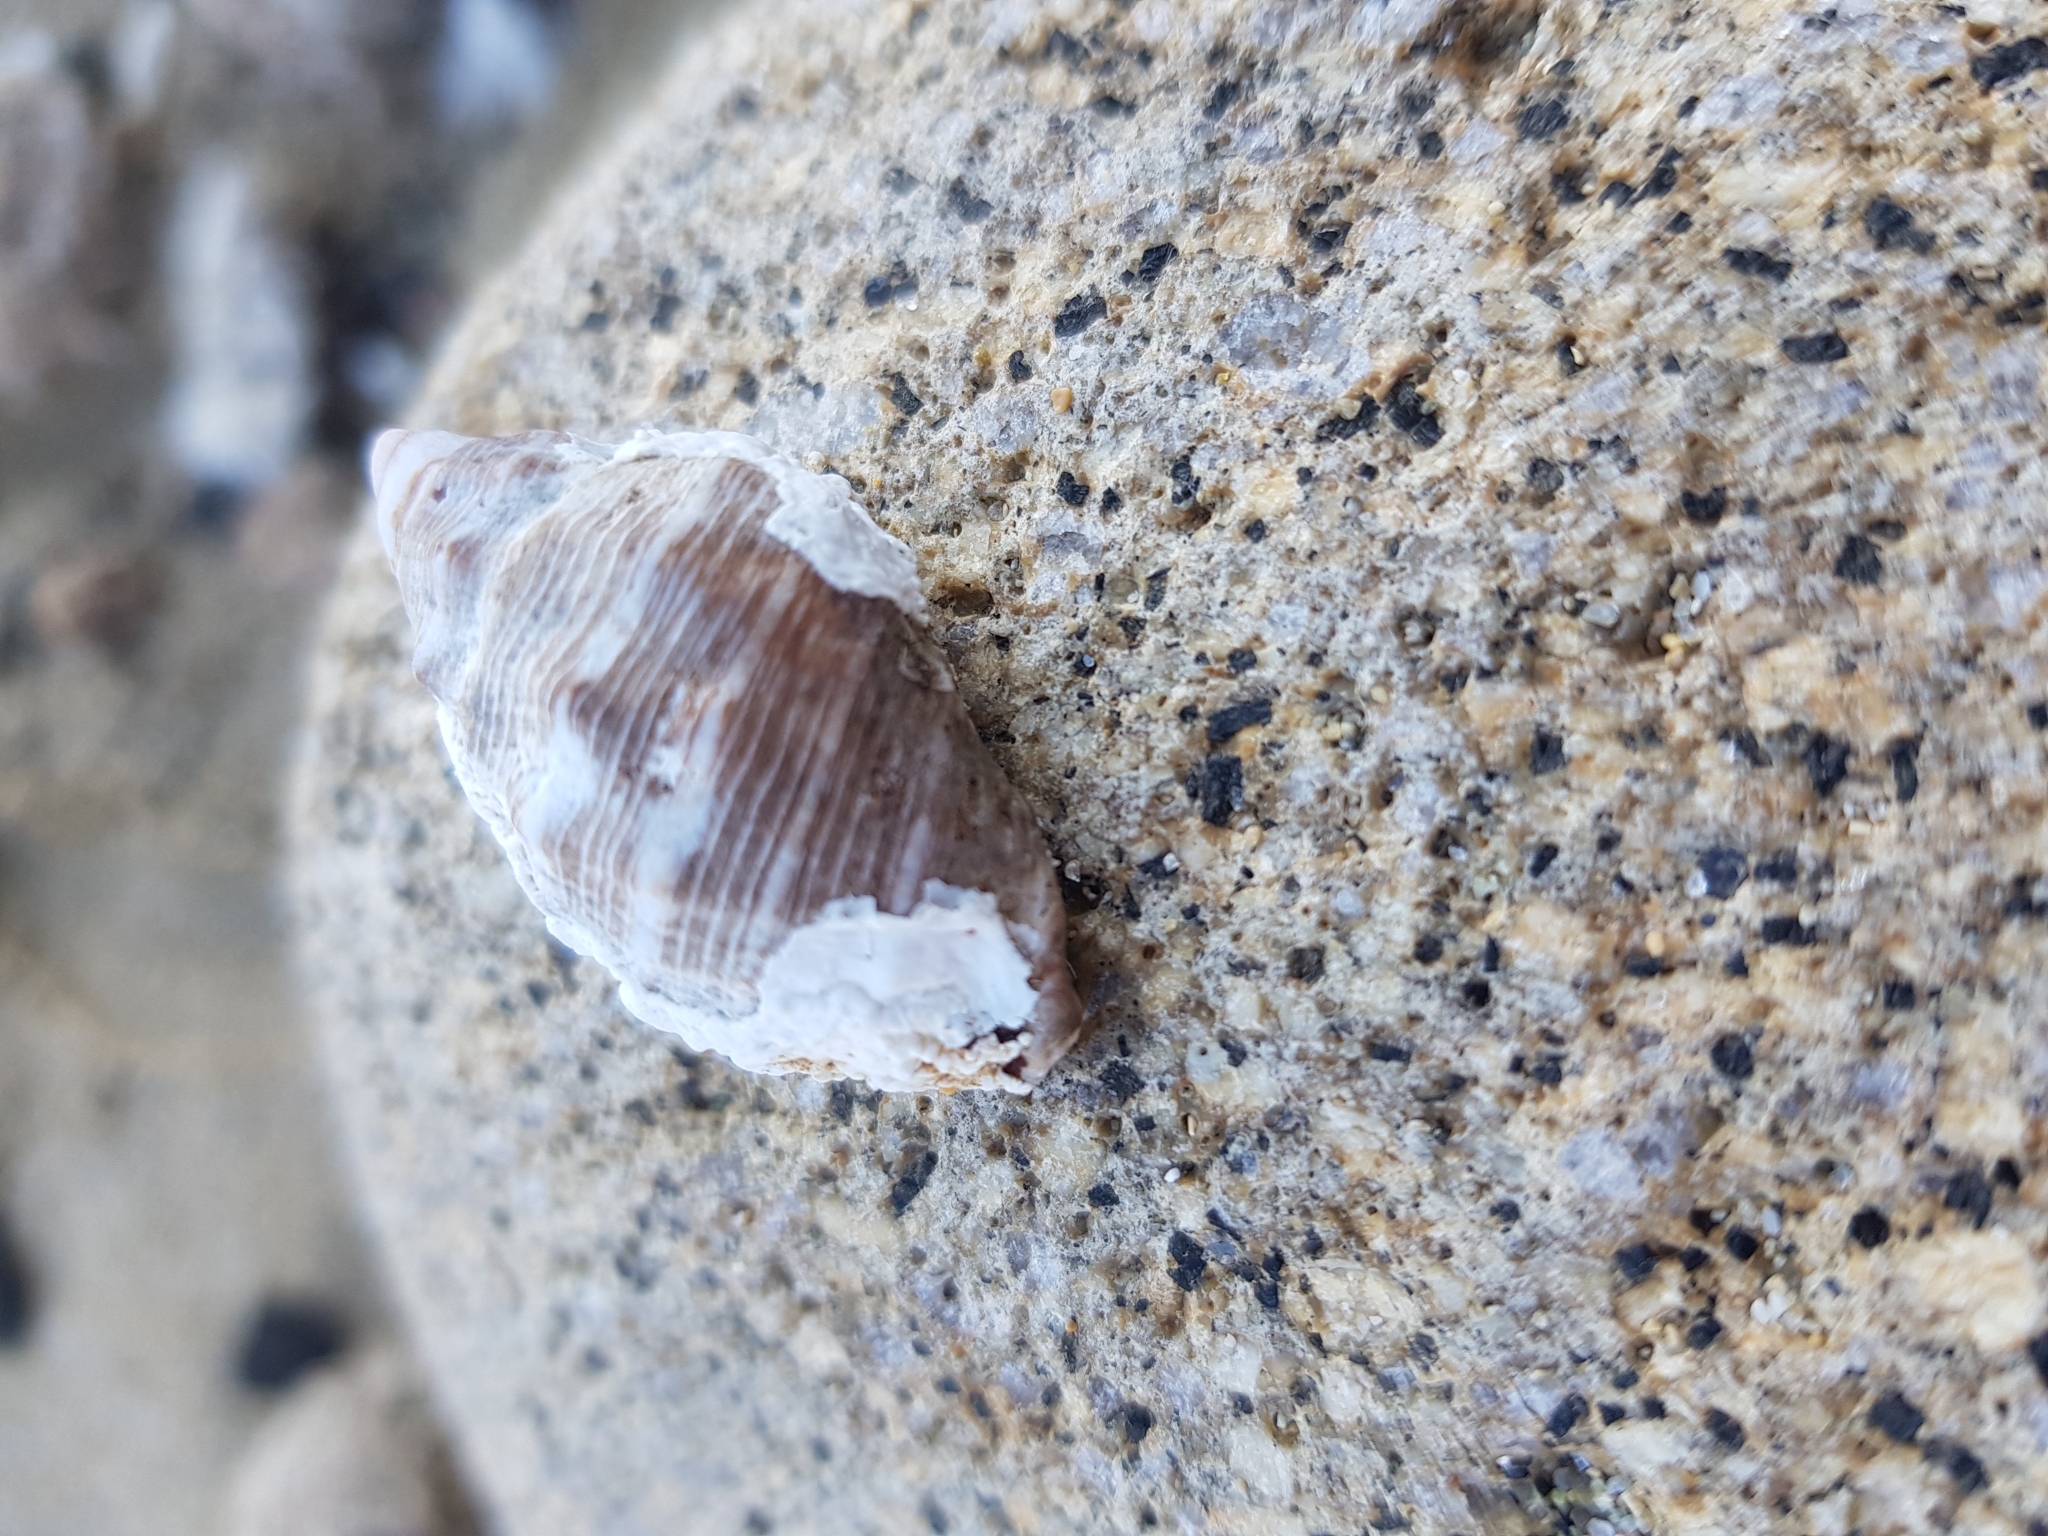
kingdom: Animalia
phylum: Mollusca
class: Gastropoda
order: Neogastropoda
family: Muricidae
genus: Stramonita
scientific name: Stramonita haemastoma
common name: Florida dog winkle
